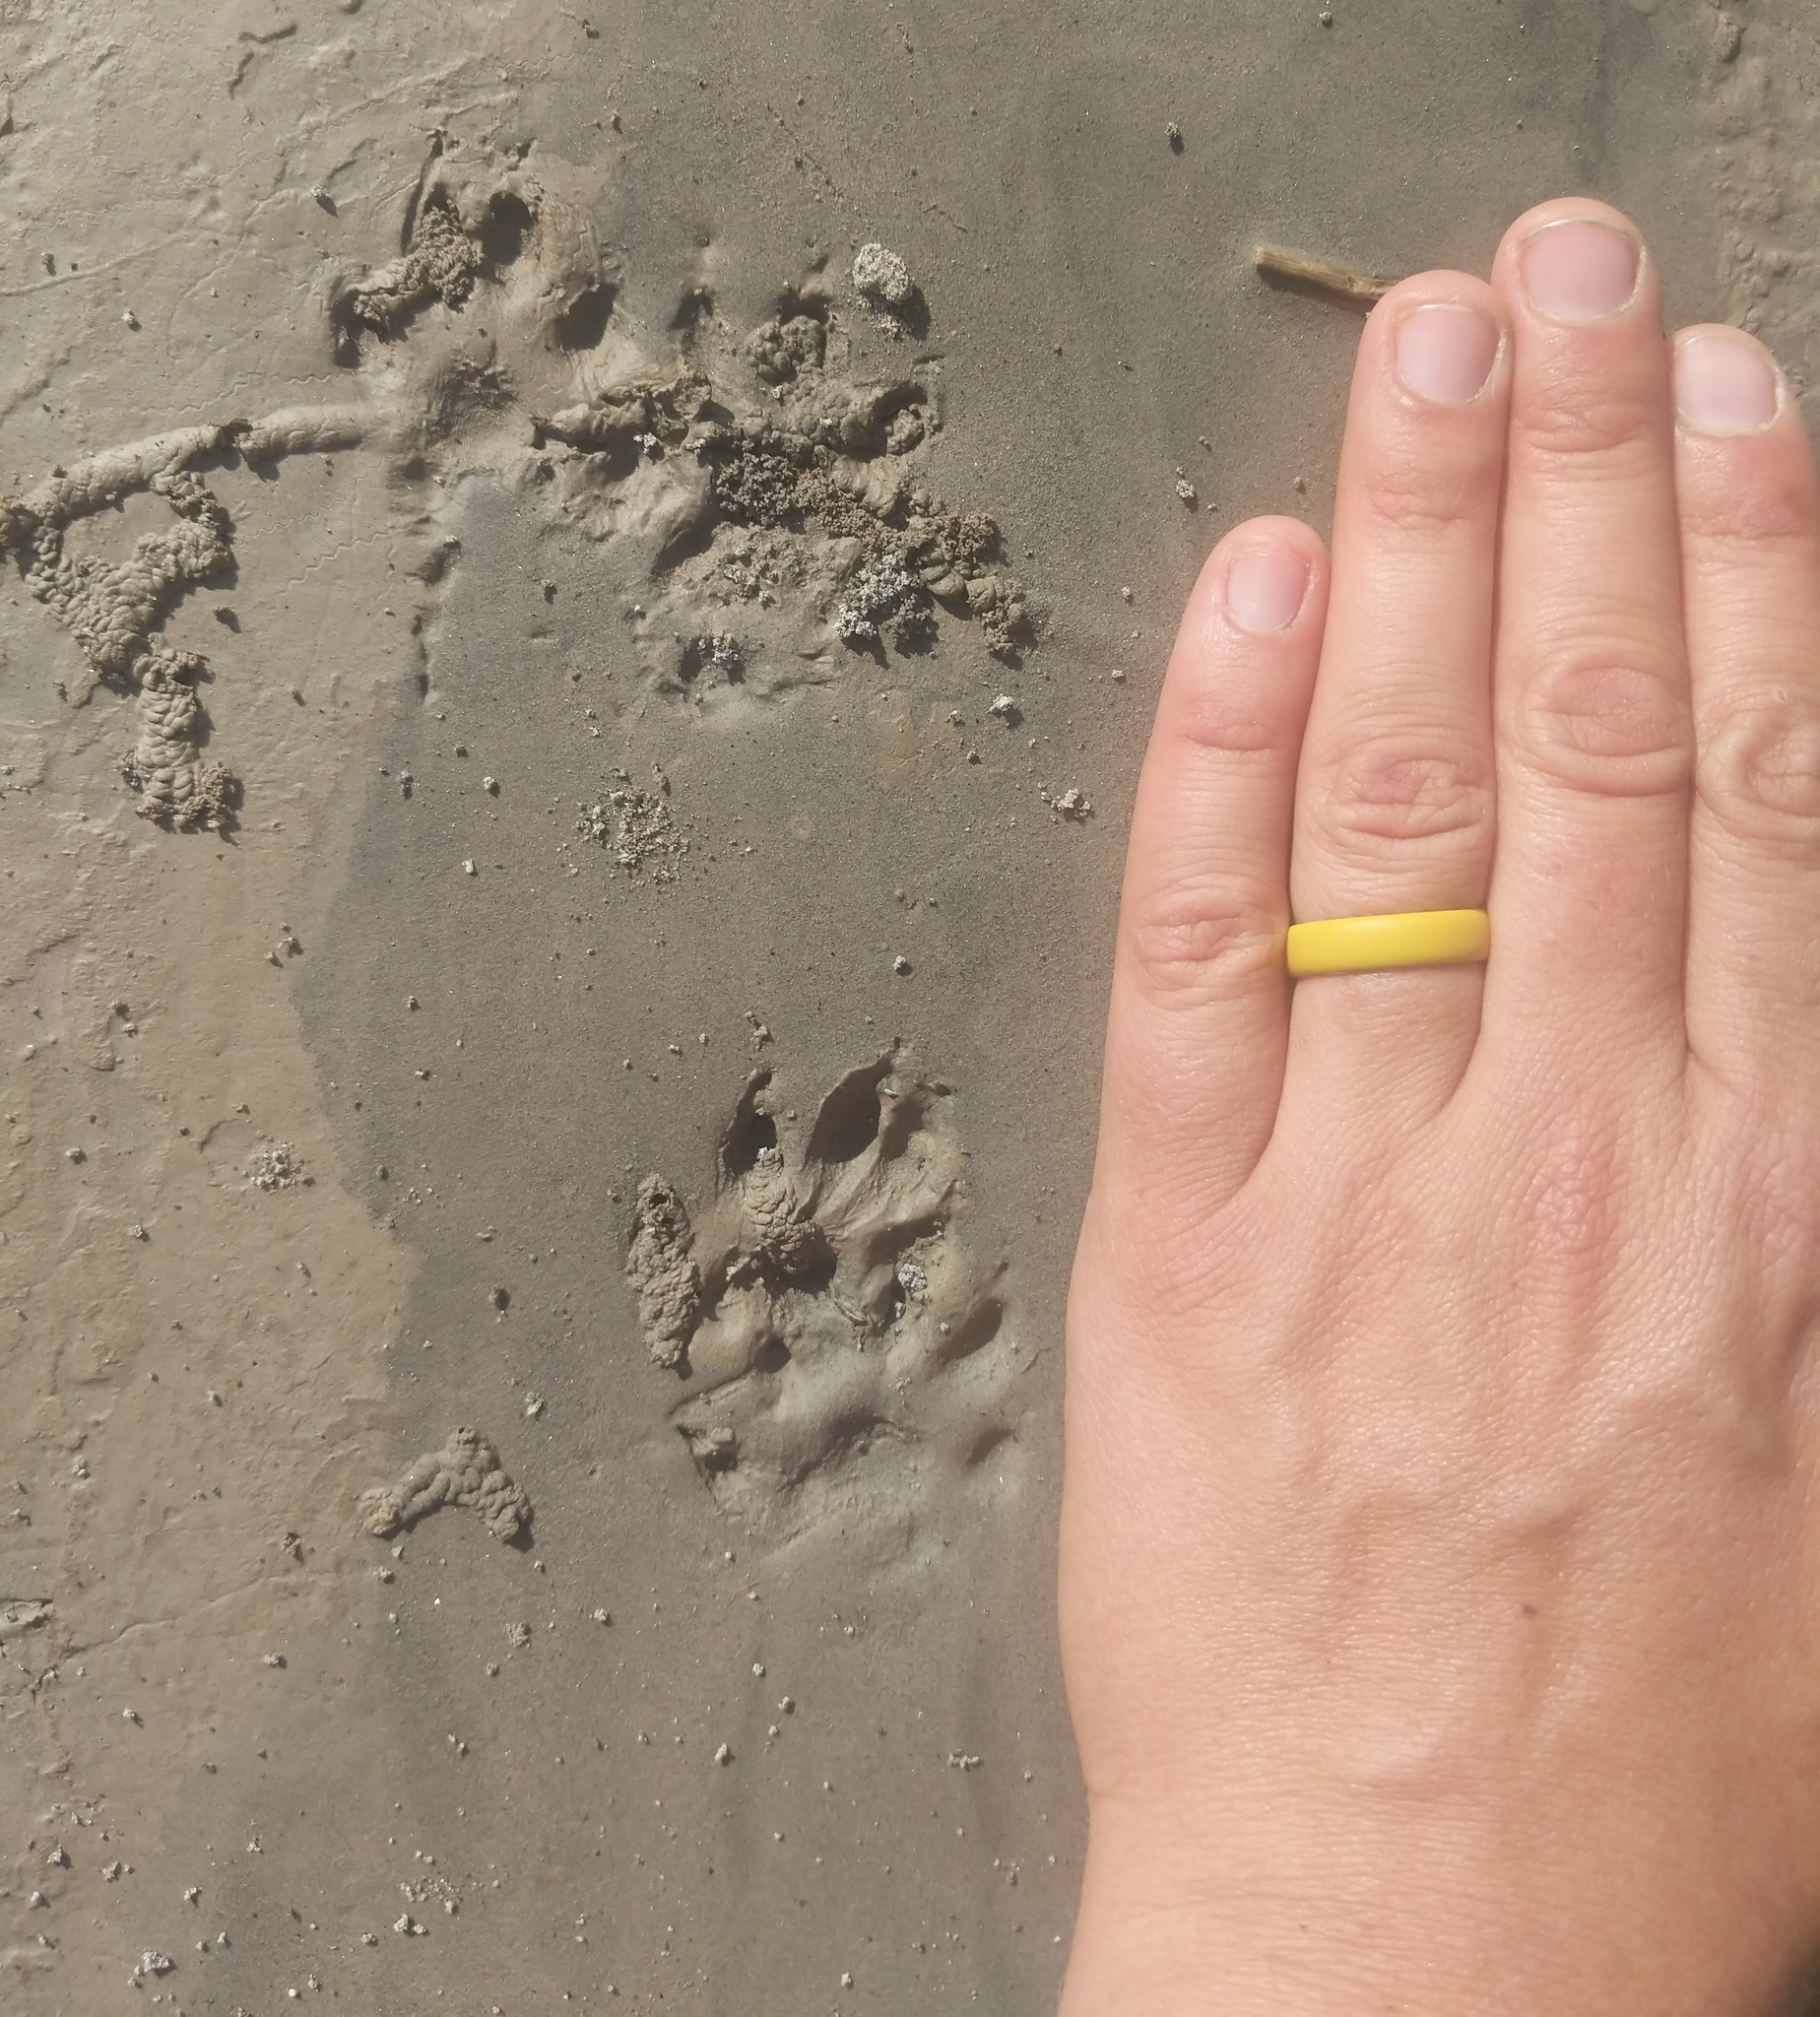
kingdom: Animalia
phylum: Chordata
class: Mammalia
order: Carnivora
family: Mustelidae
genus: Mustela
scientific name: Mustela
